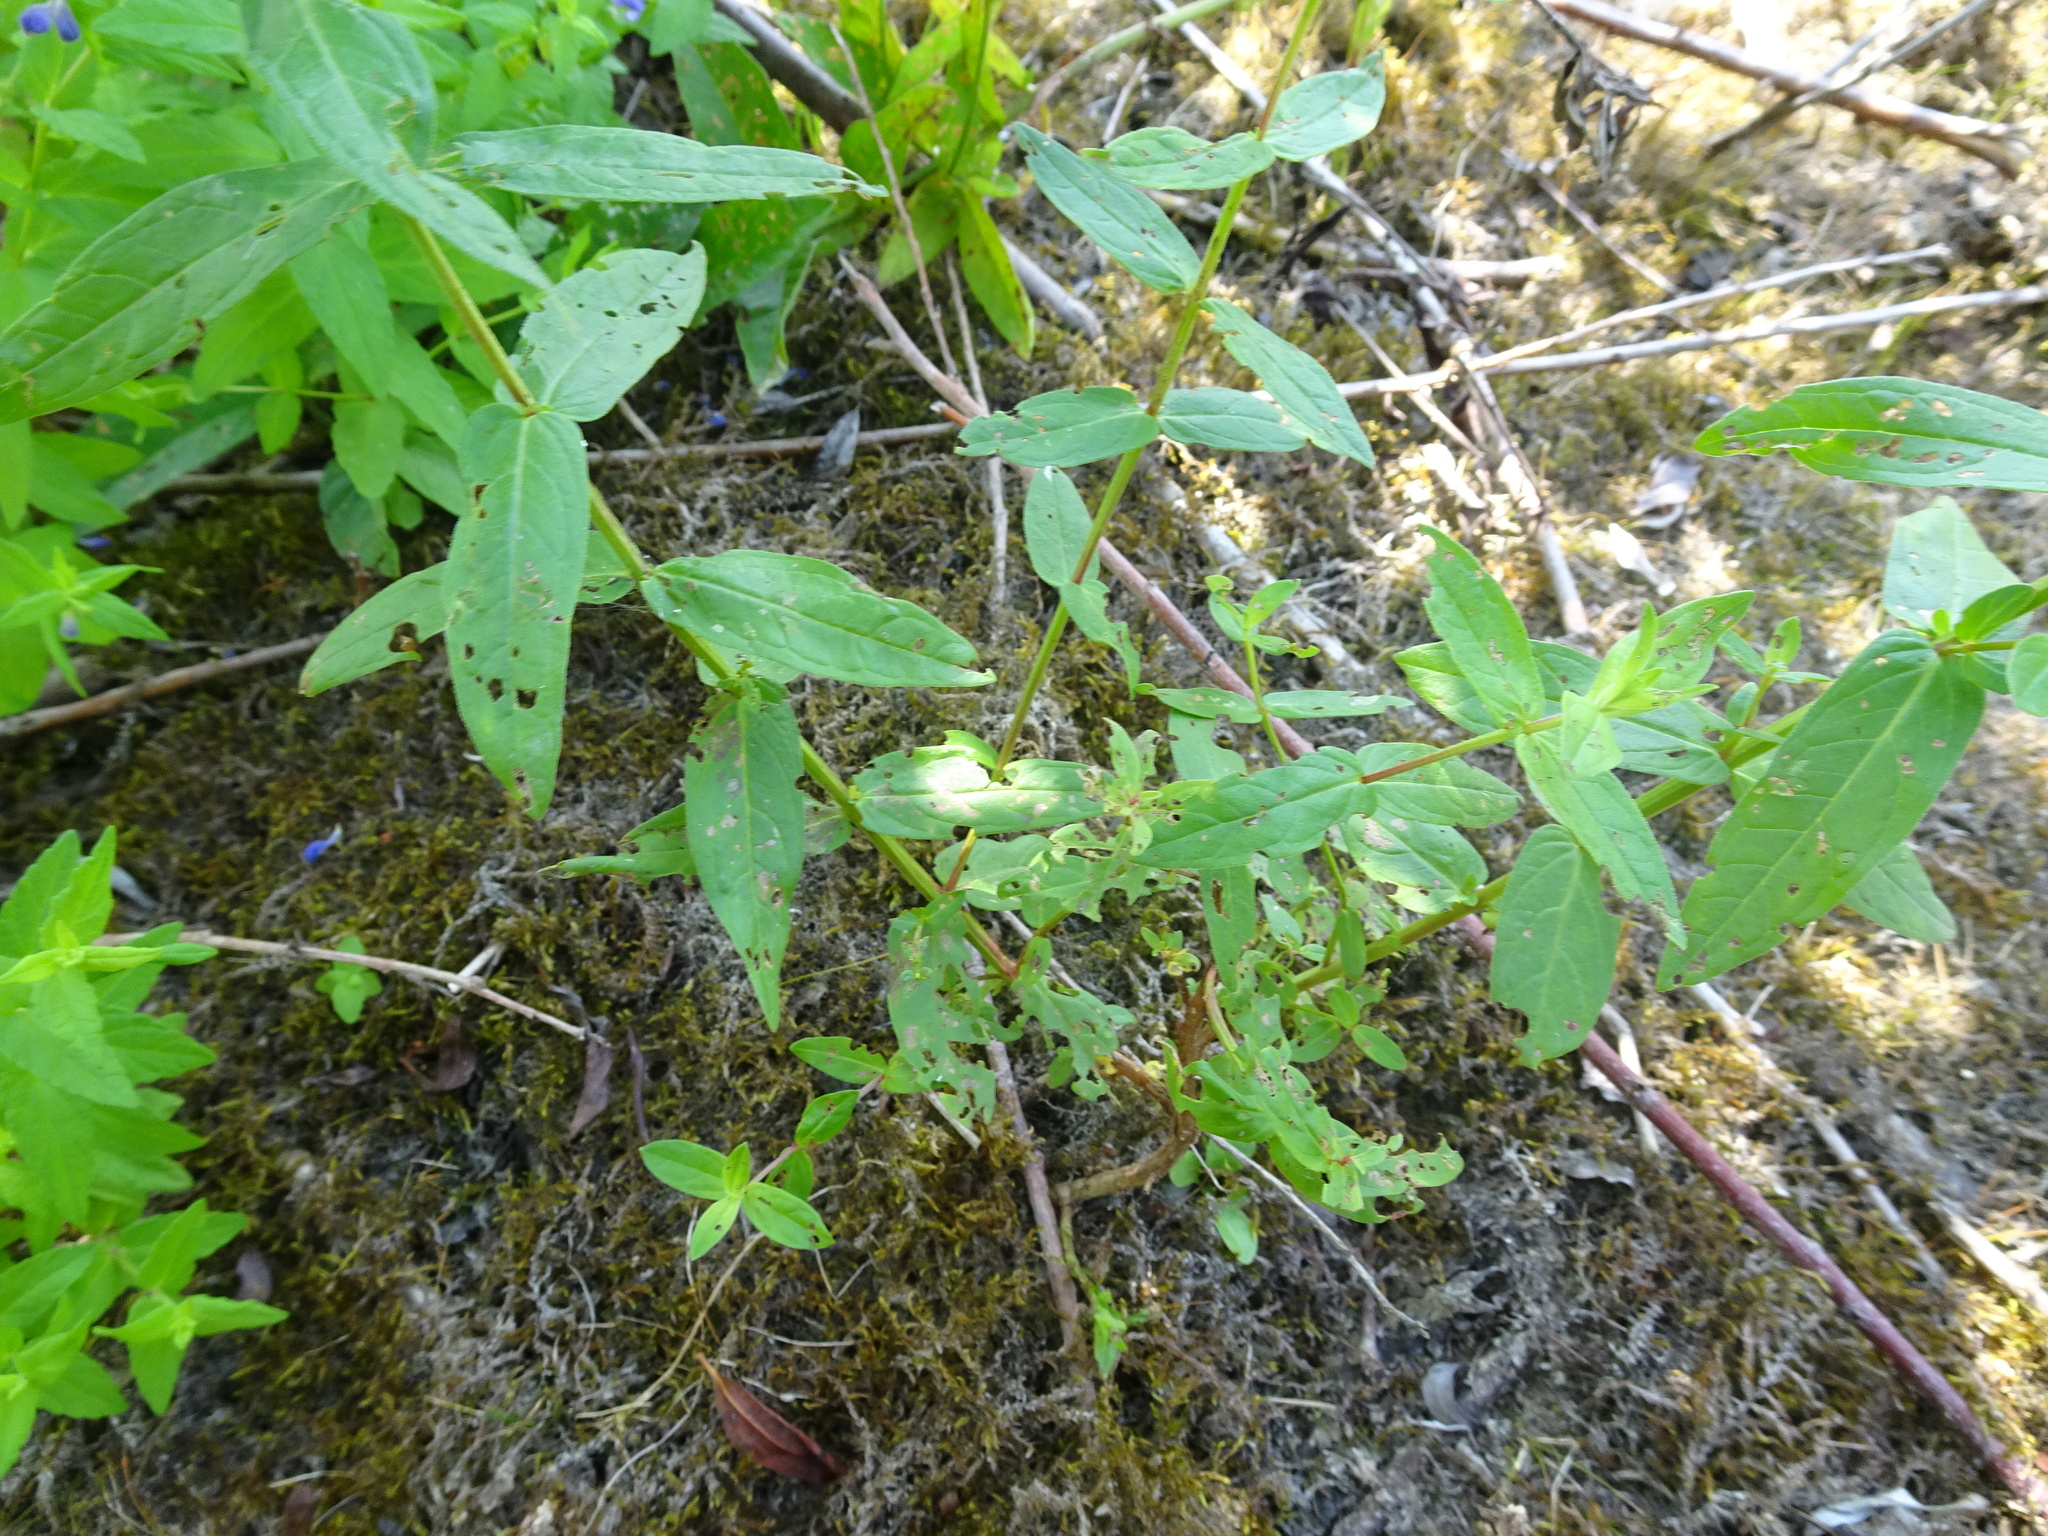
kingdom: Plantae
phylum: Tracheophyta
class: Magnoliopsida
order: Lamiales
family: Lamiaceae
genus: Scutellaria
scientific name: Scutellaria galericulata
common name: Skullcap
